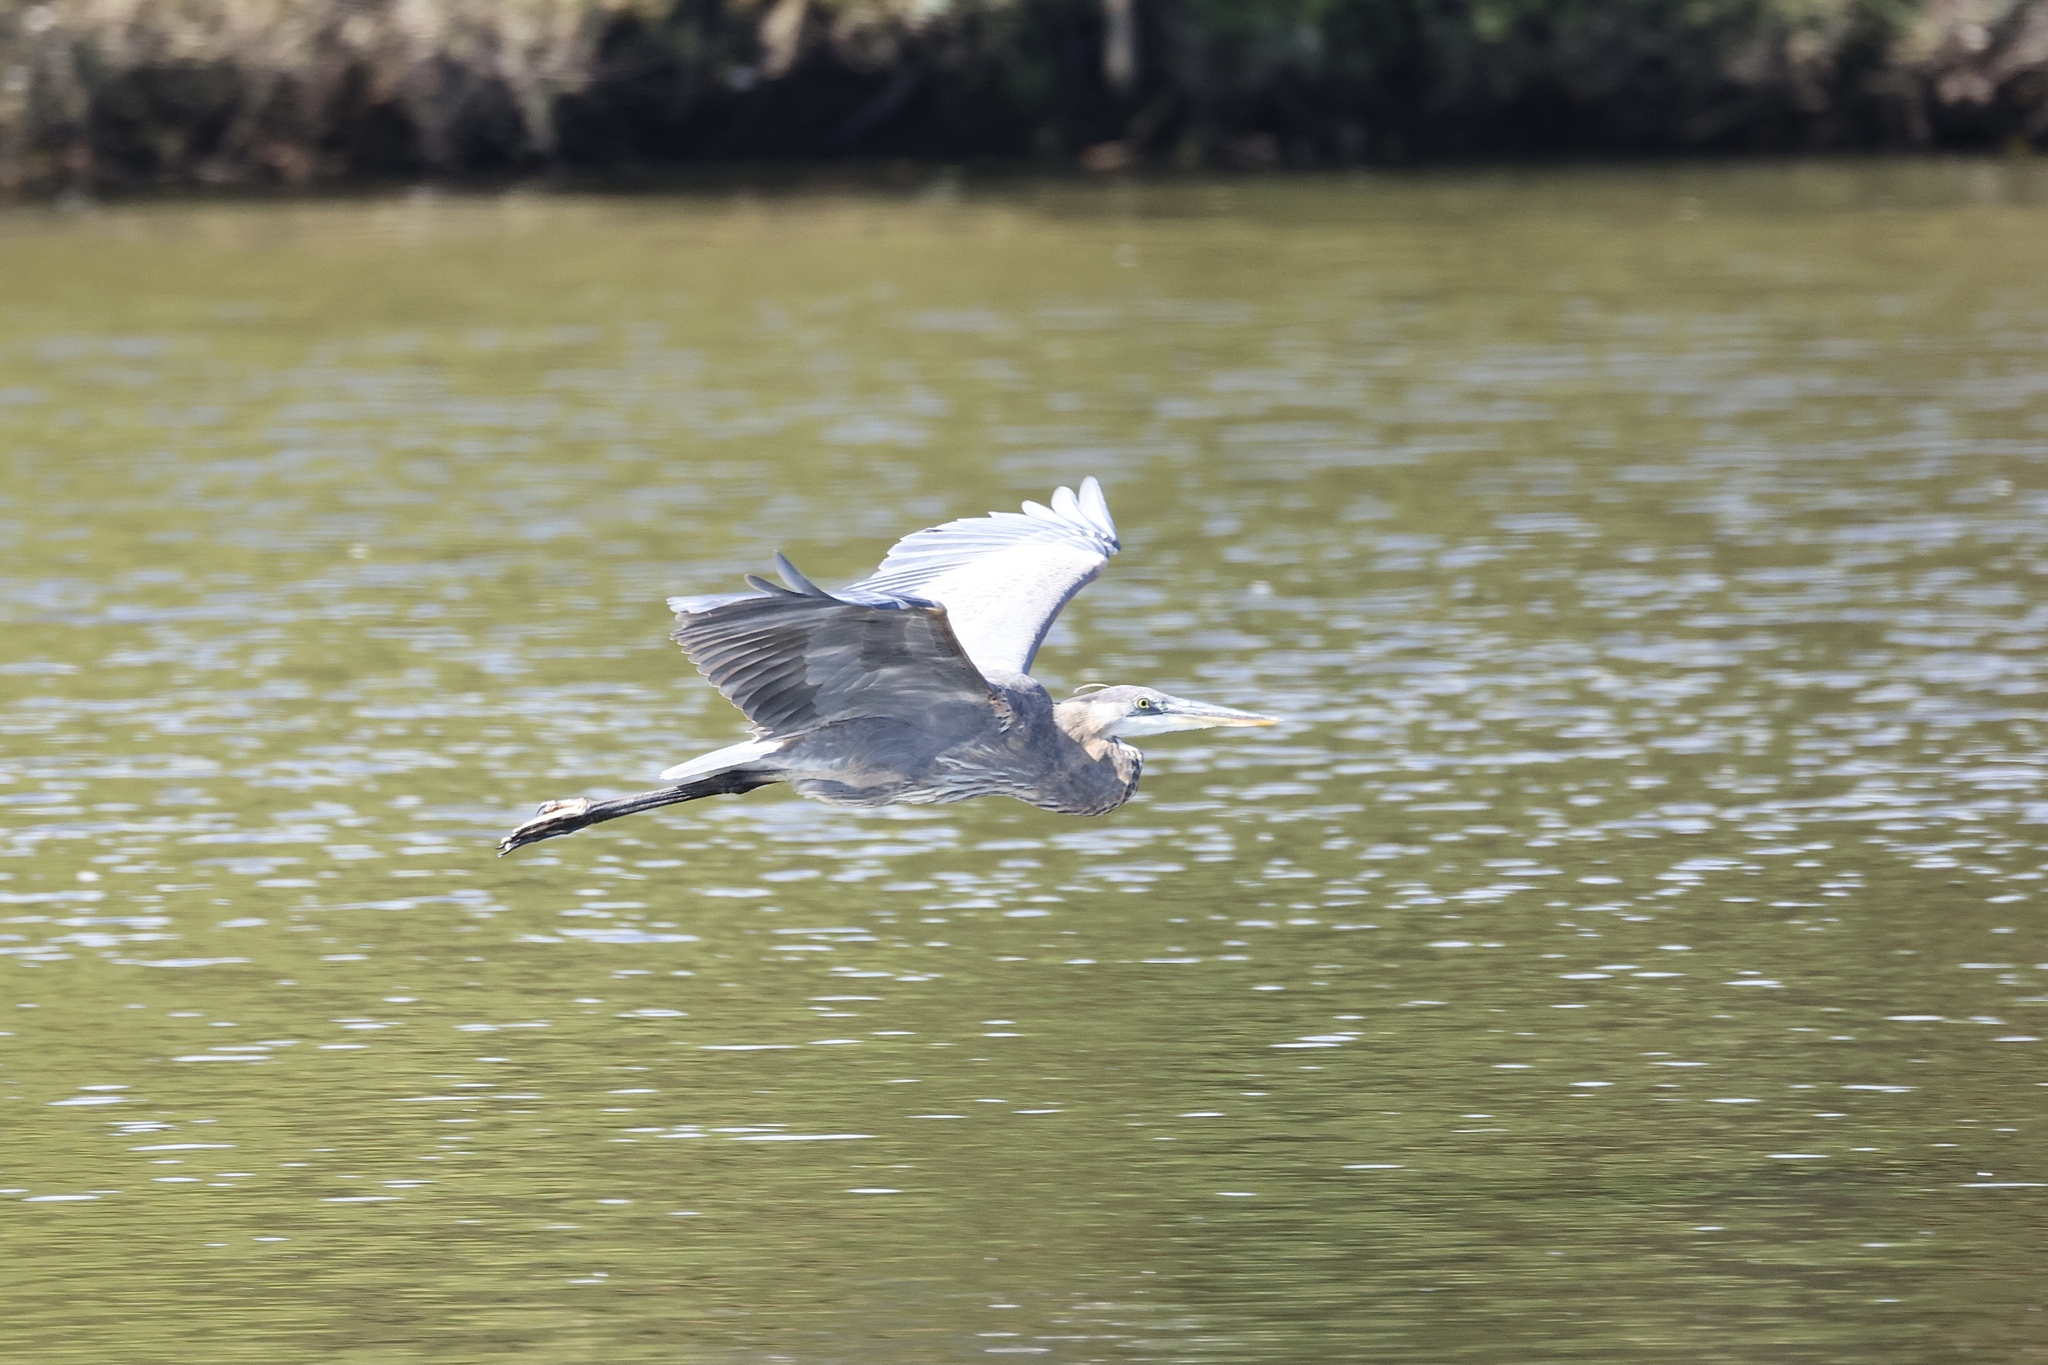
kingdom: Animalia
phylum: Chordata
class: Aves
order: Pelecaniformes
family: Ardeidae
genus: Ardea
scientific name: Ardea herodias
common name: Great blue heron
